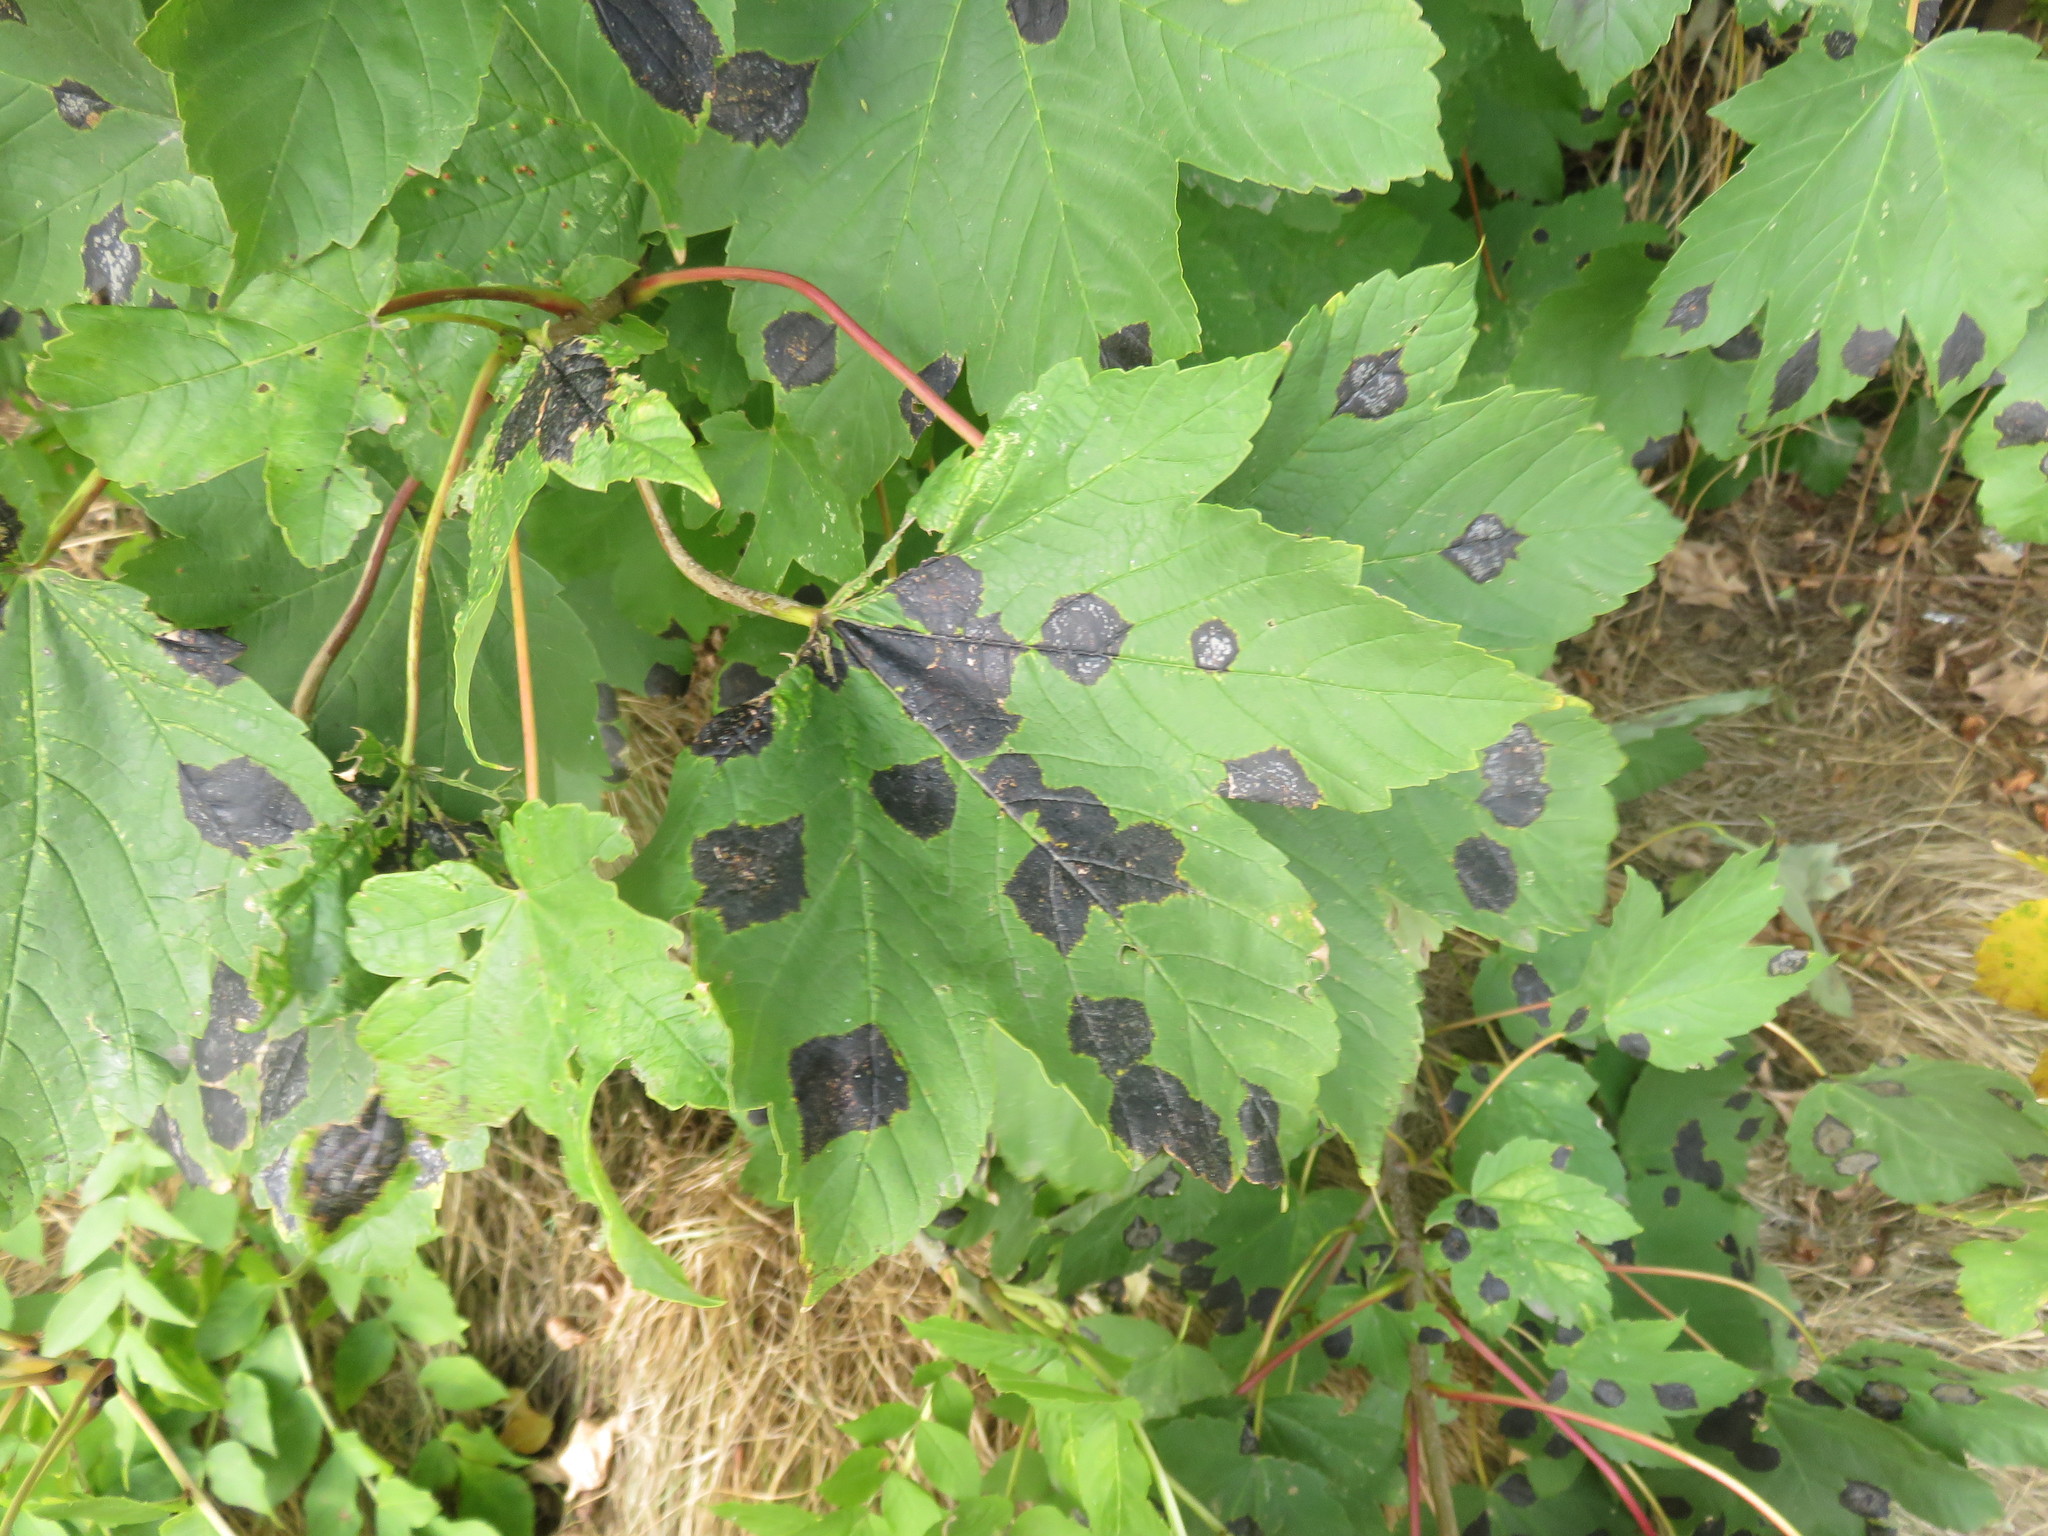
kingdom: Fungi
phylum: Ascomycota
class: Leotiomycetes
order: Rhytismatales
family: Rhytismataceae
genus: Rhytisma
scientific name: Rhytisma acerinum
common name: European tar spot
